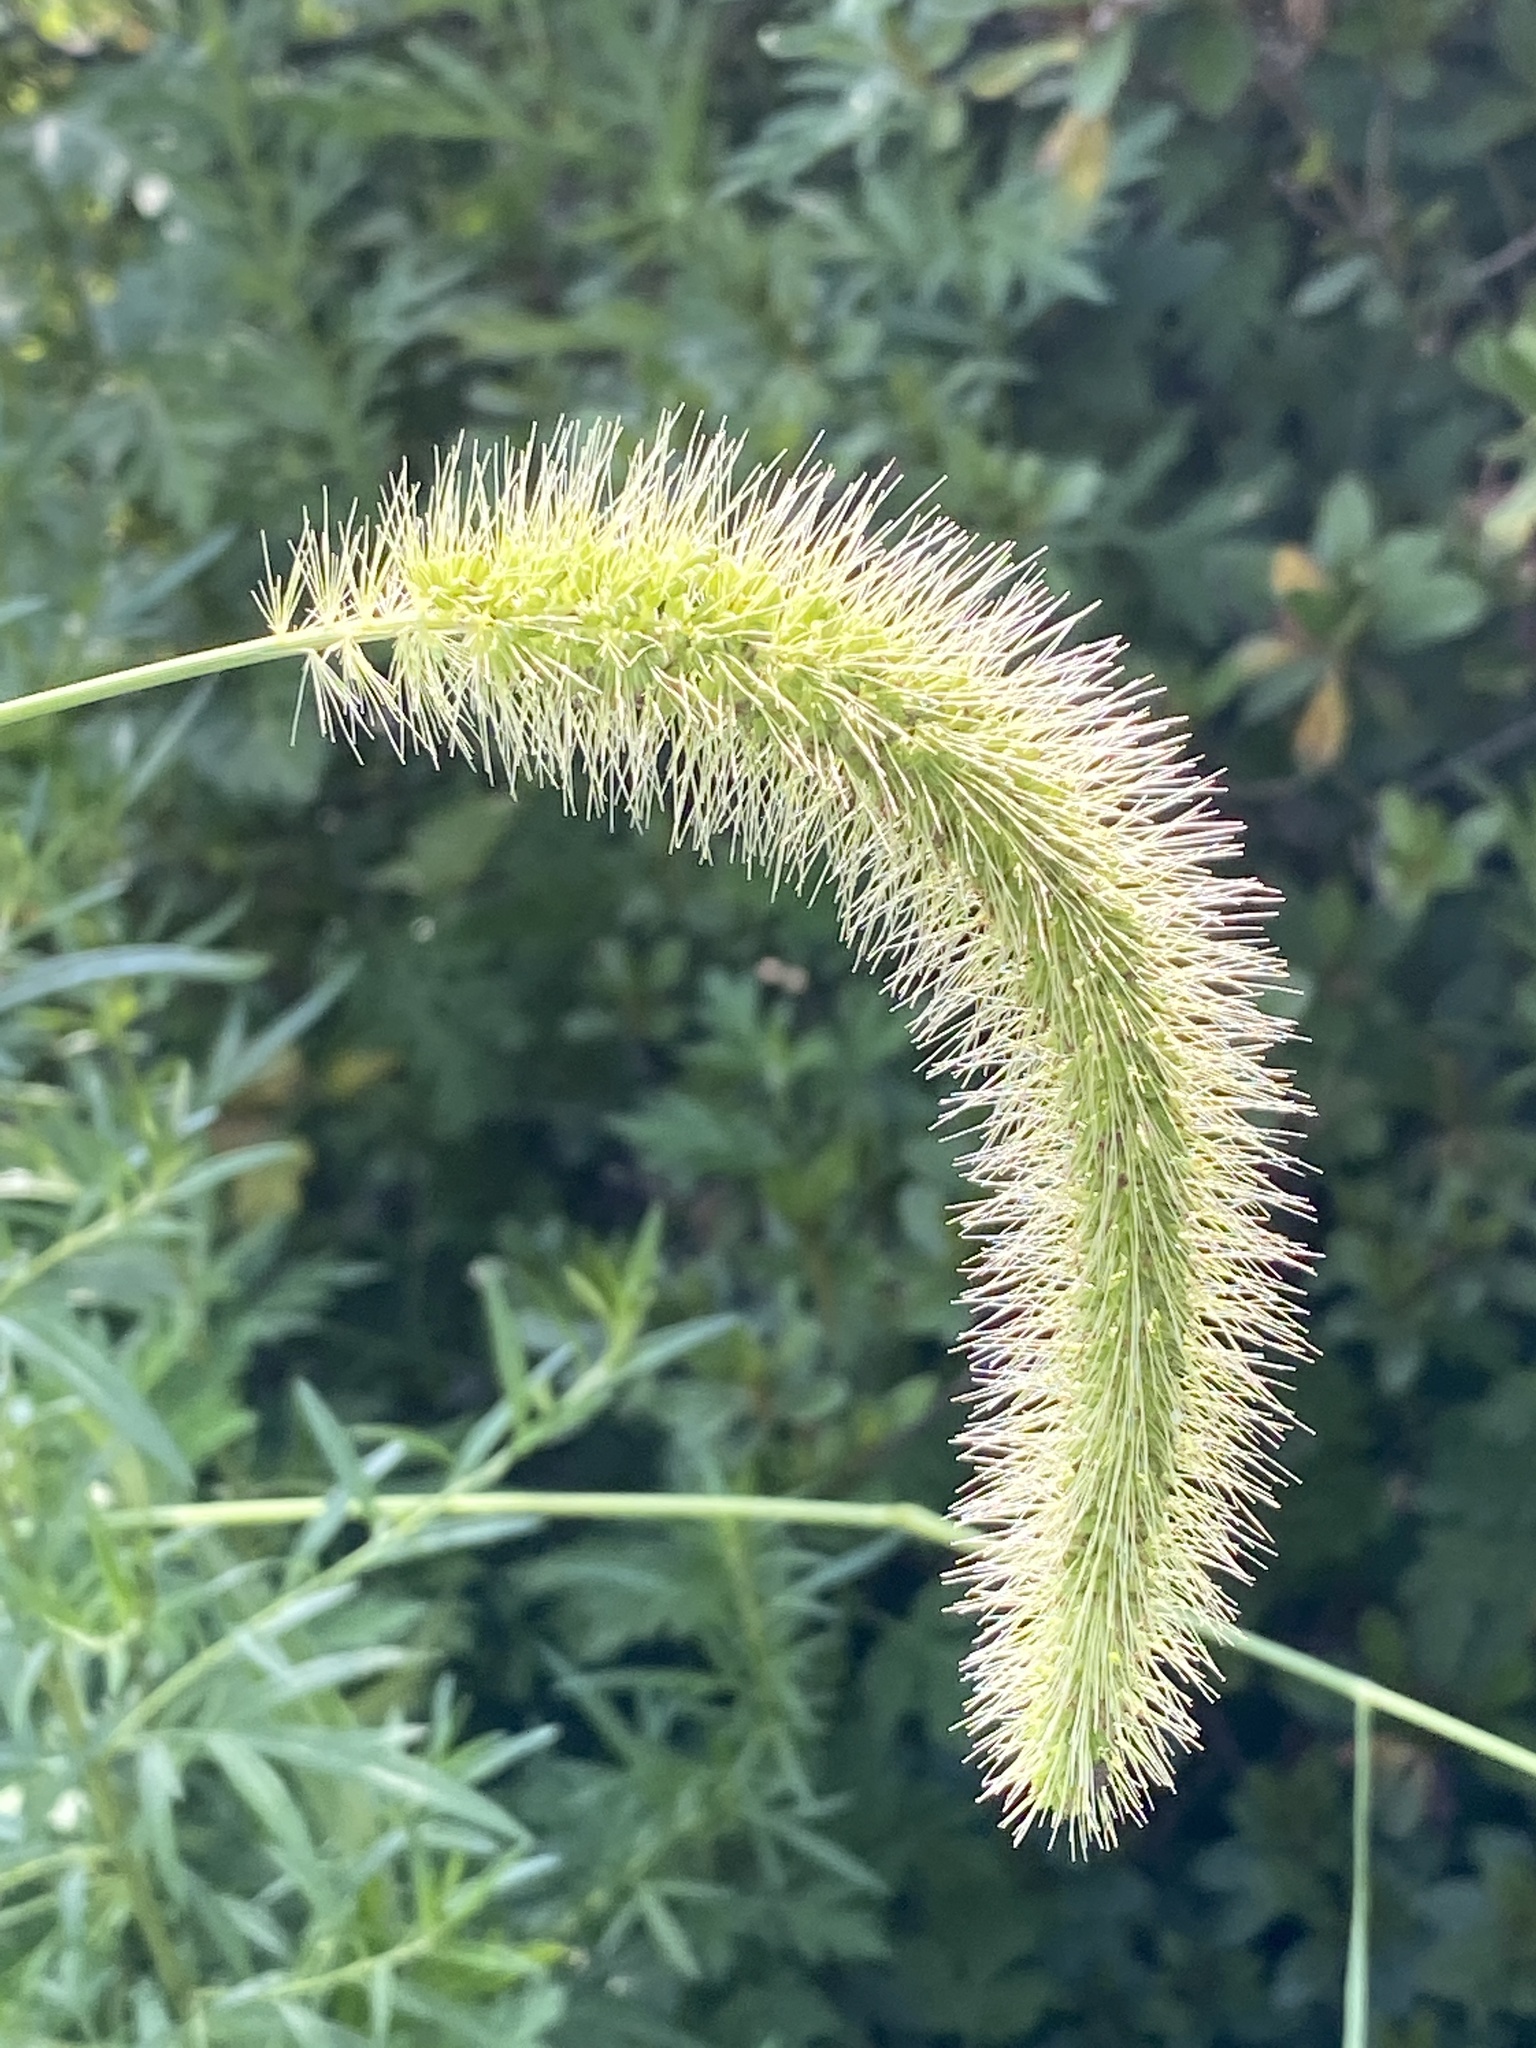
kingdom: Plantae
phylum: Tracheophyta
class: Liliopsida
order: Poales
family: Poaceae
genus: Setaria
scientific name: Setaria faberi
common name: Nodding bristle-grass
